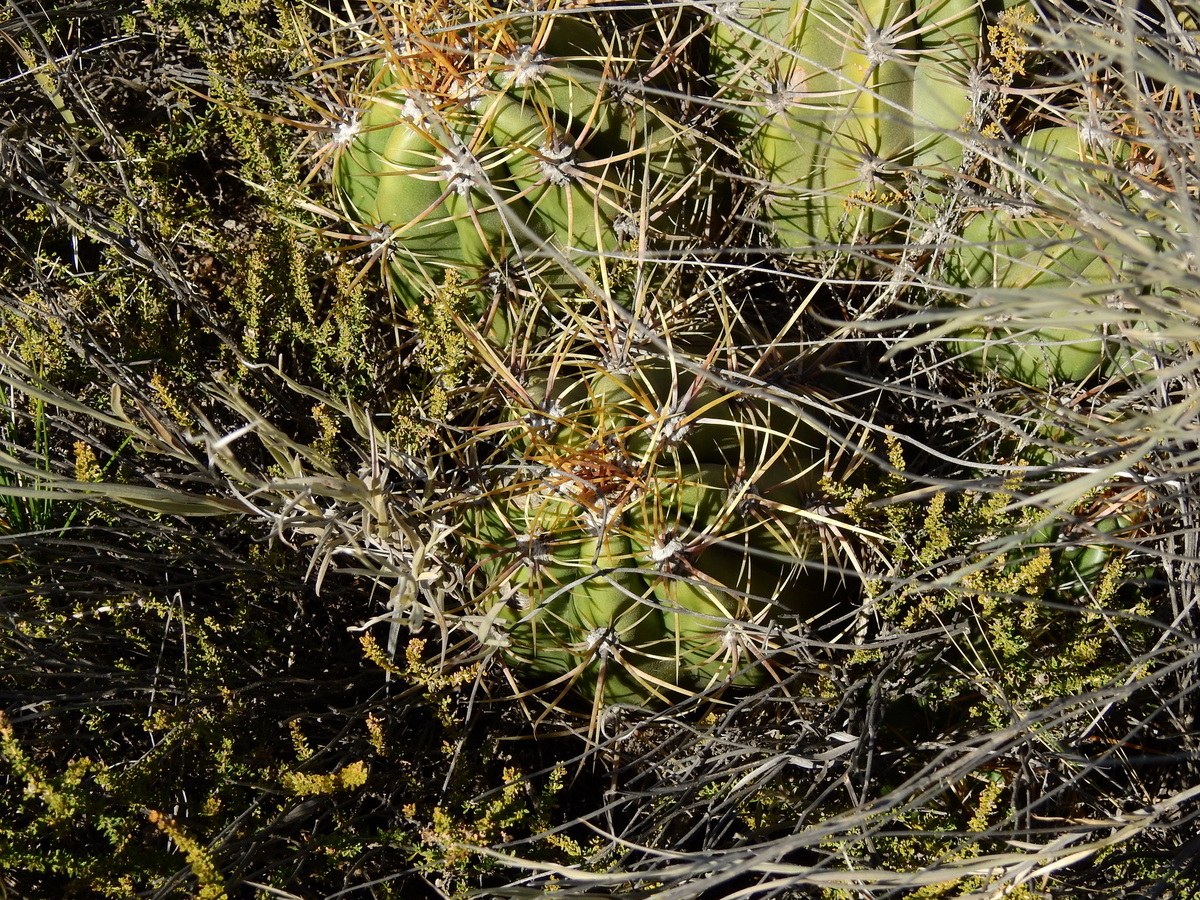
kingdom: Plantae
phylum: Tracheophyta
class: Magnoliopsida
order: Caryophyllales
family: Cactaceae
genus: Soehrensia
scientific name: Soehrensia candicans
